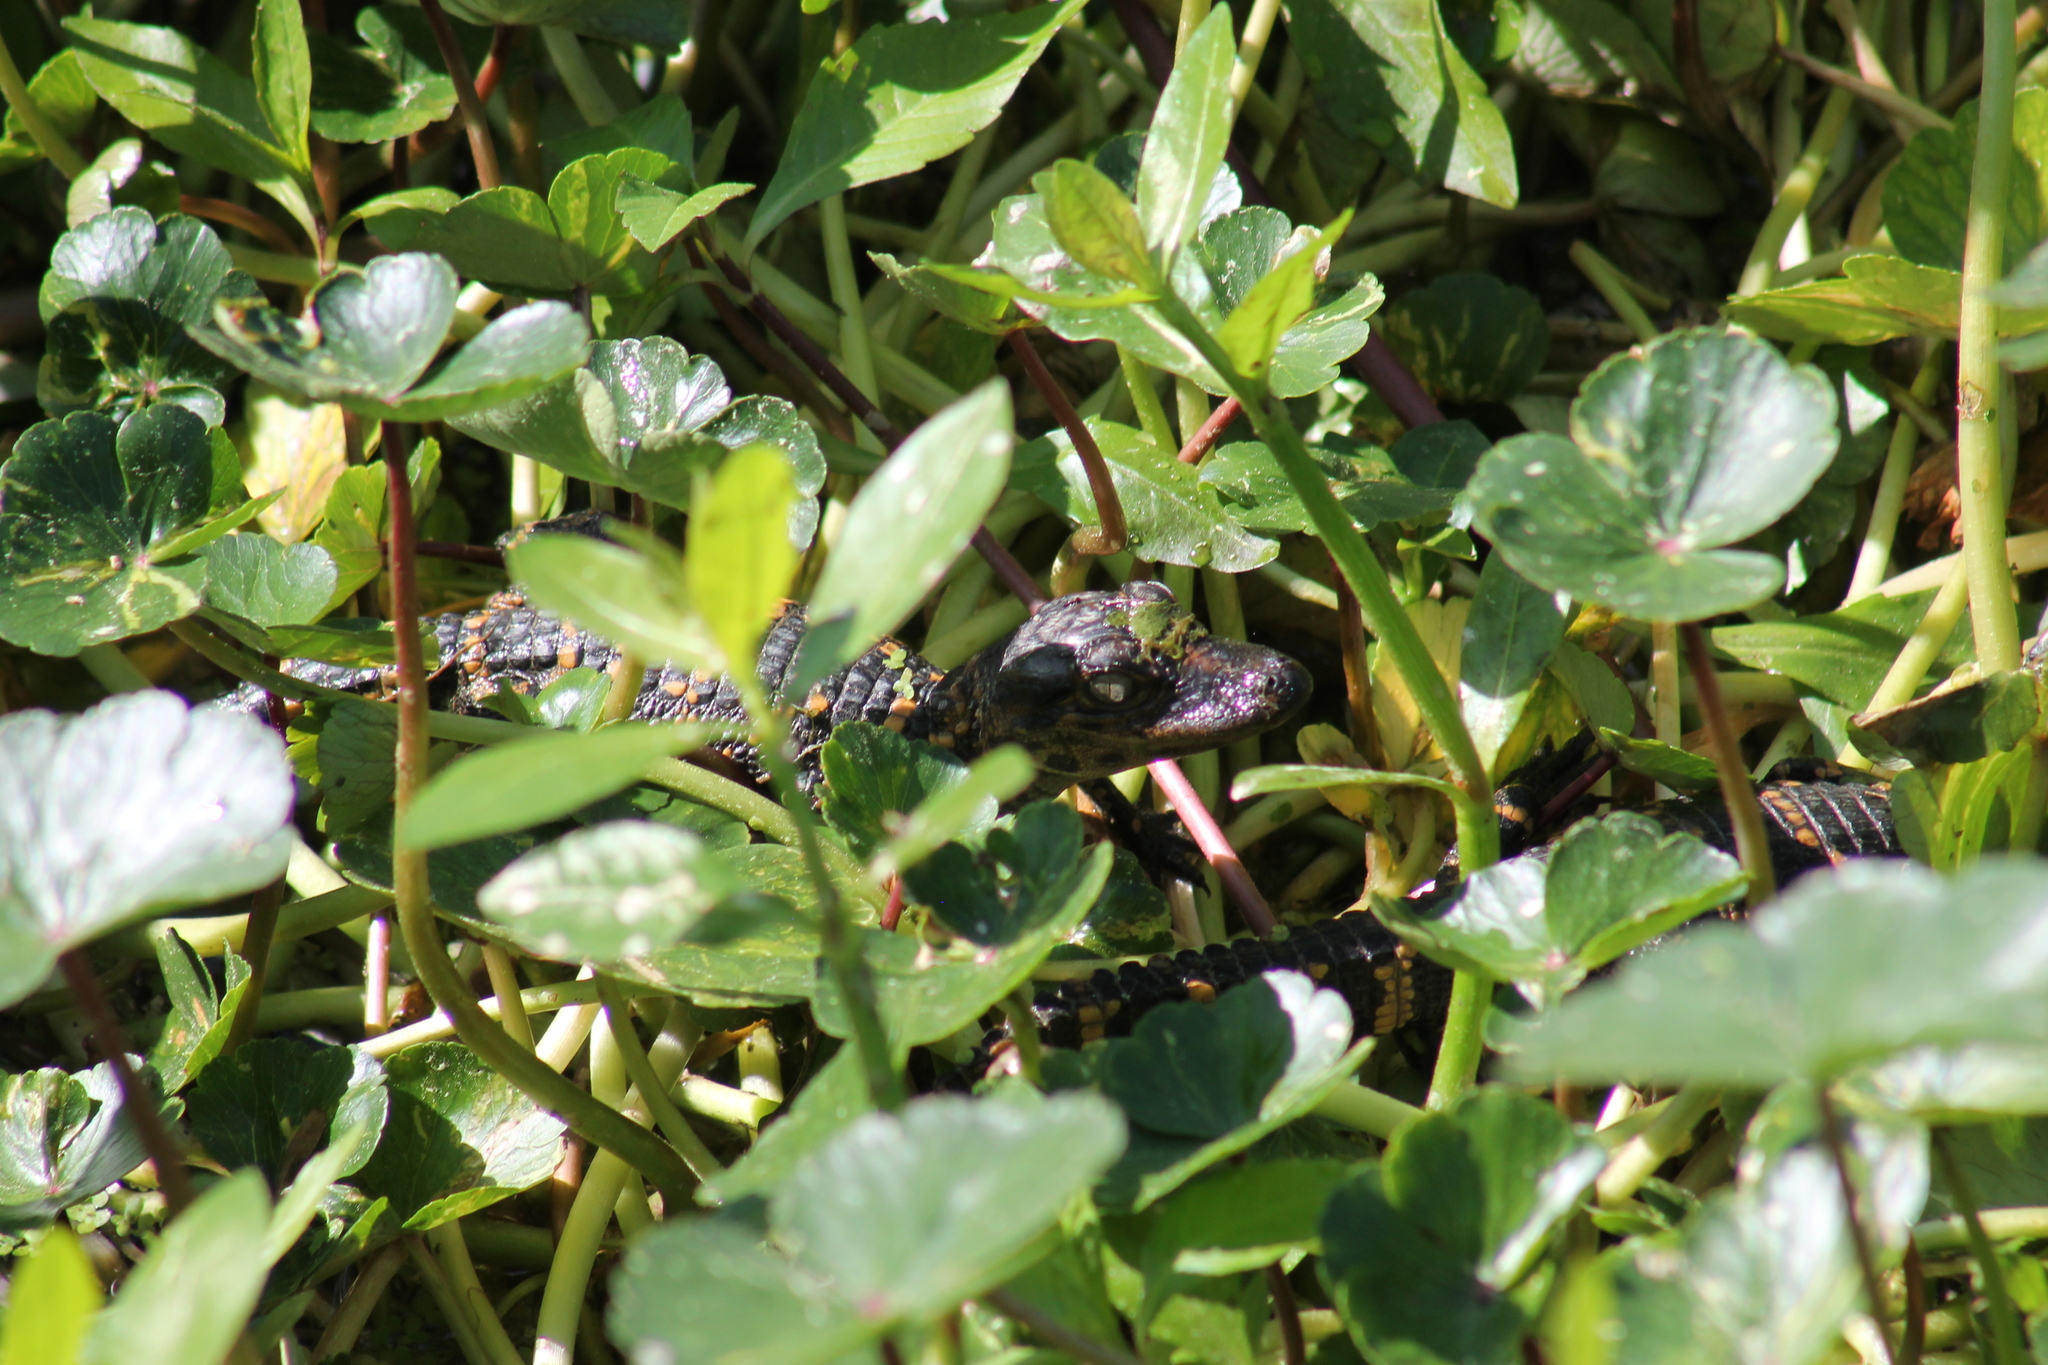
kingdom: Animalia
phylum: Chordata
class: Crocodylia
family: Alligatoridae
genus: Alligator
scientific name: Alligator mississippiensis
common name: American alligator
